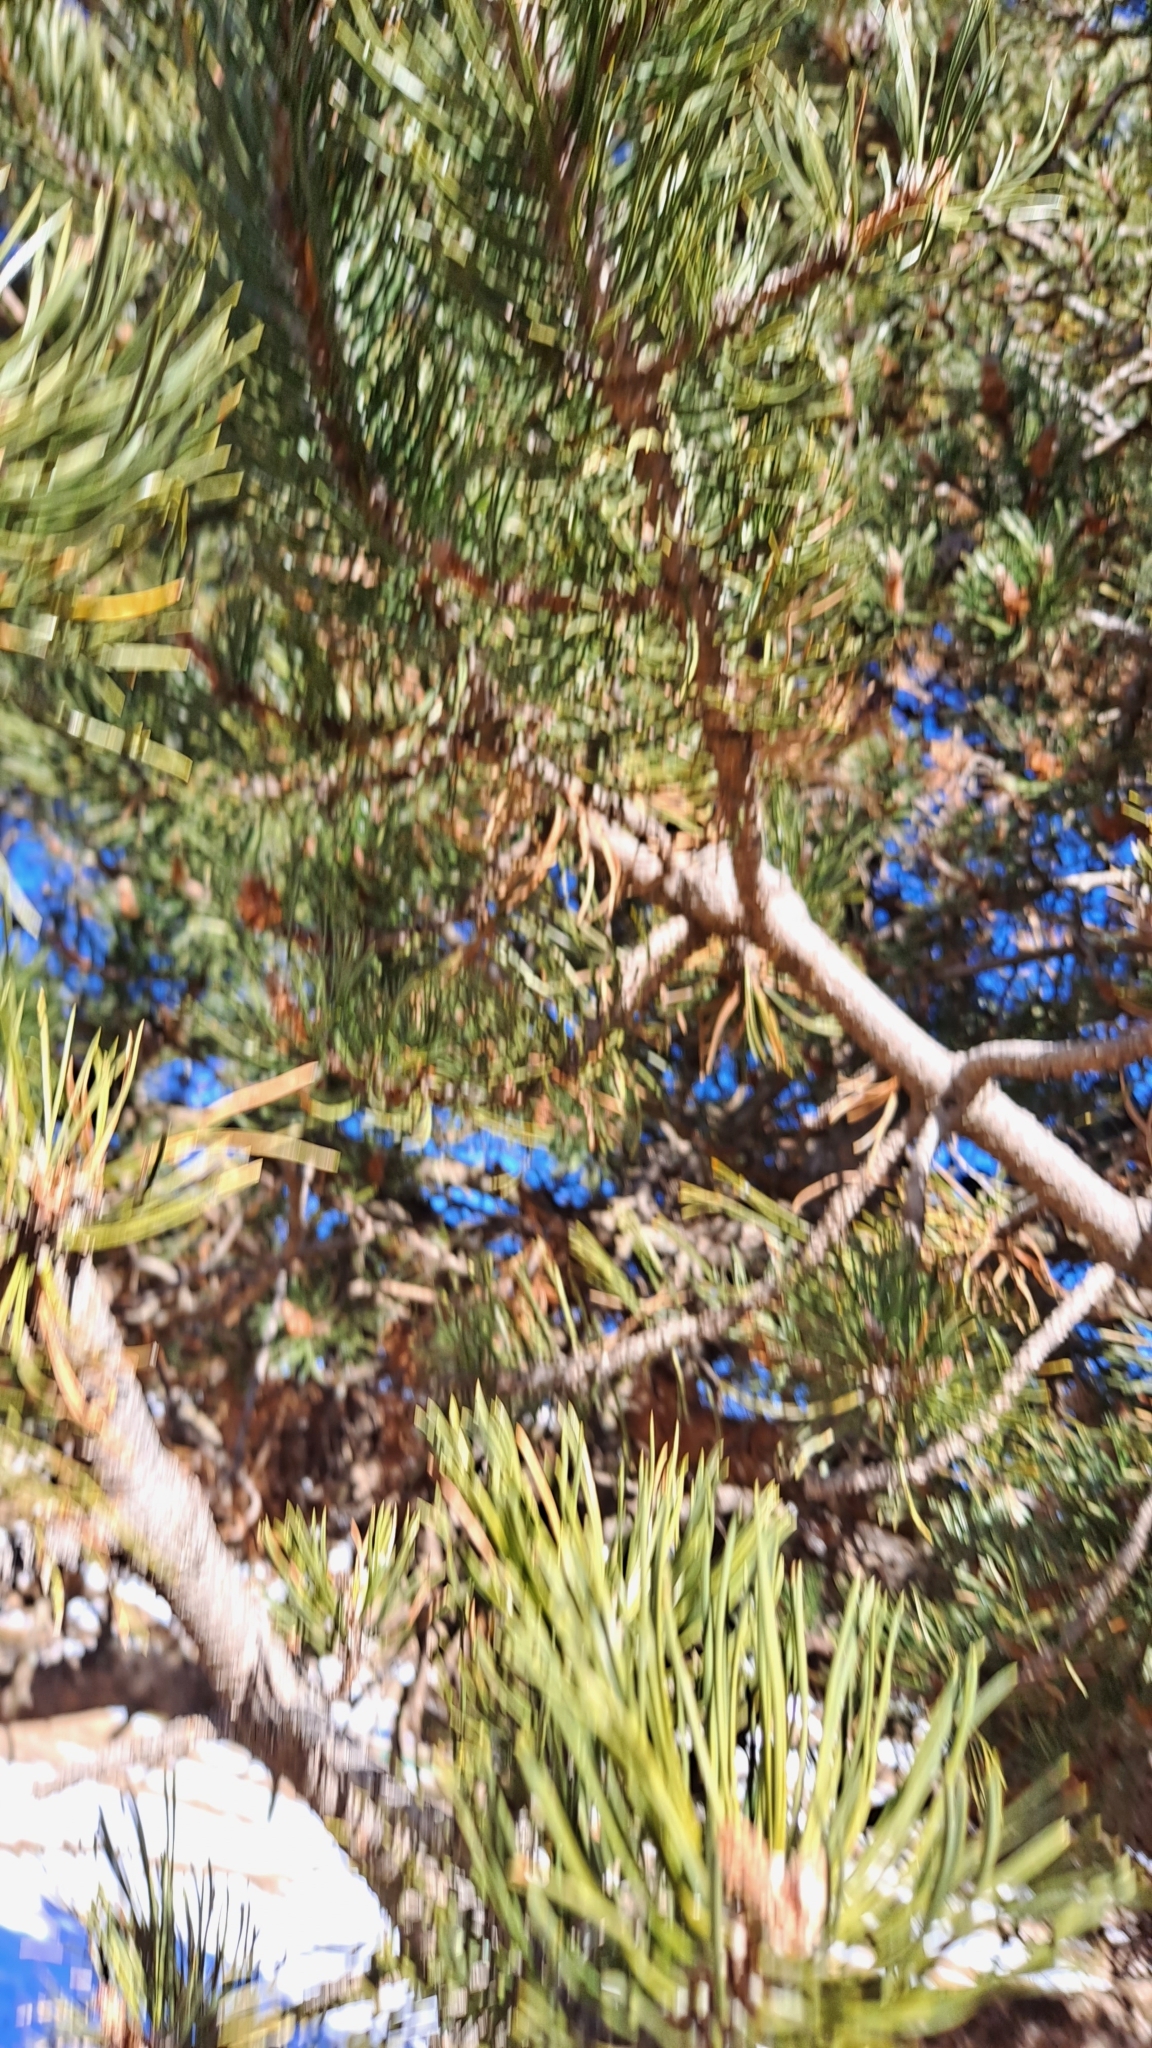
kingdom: Plantae
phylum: Tracheophyta
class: Pinopsida
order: Pinales
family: Pinaceae
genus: Pinus
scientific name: Pinus uncinata
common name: Mountain pine
